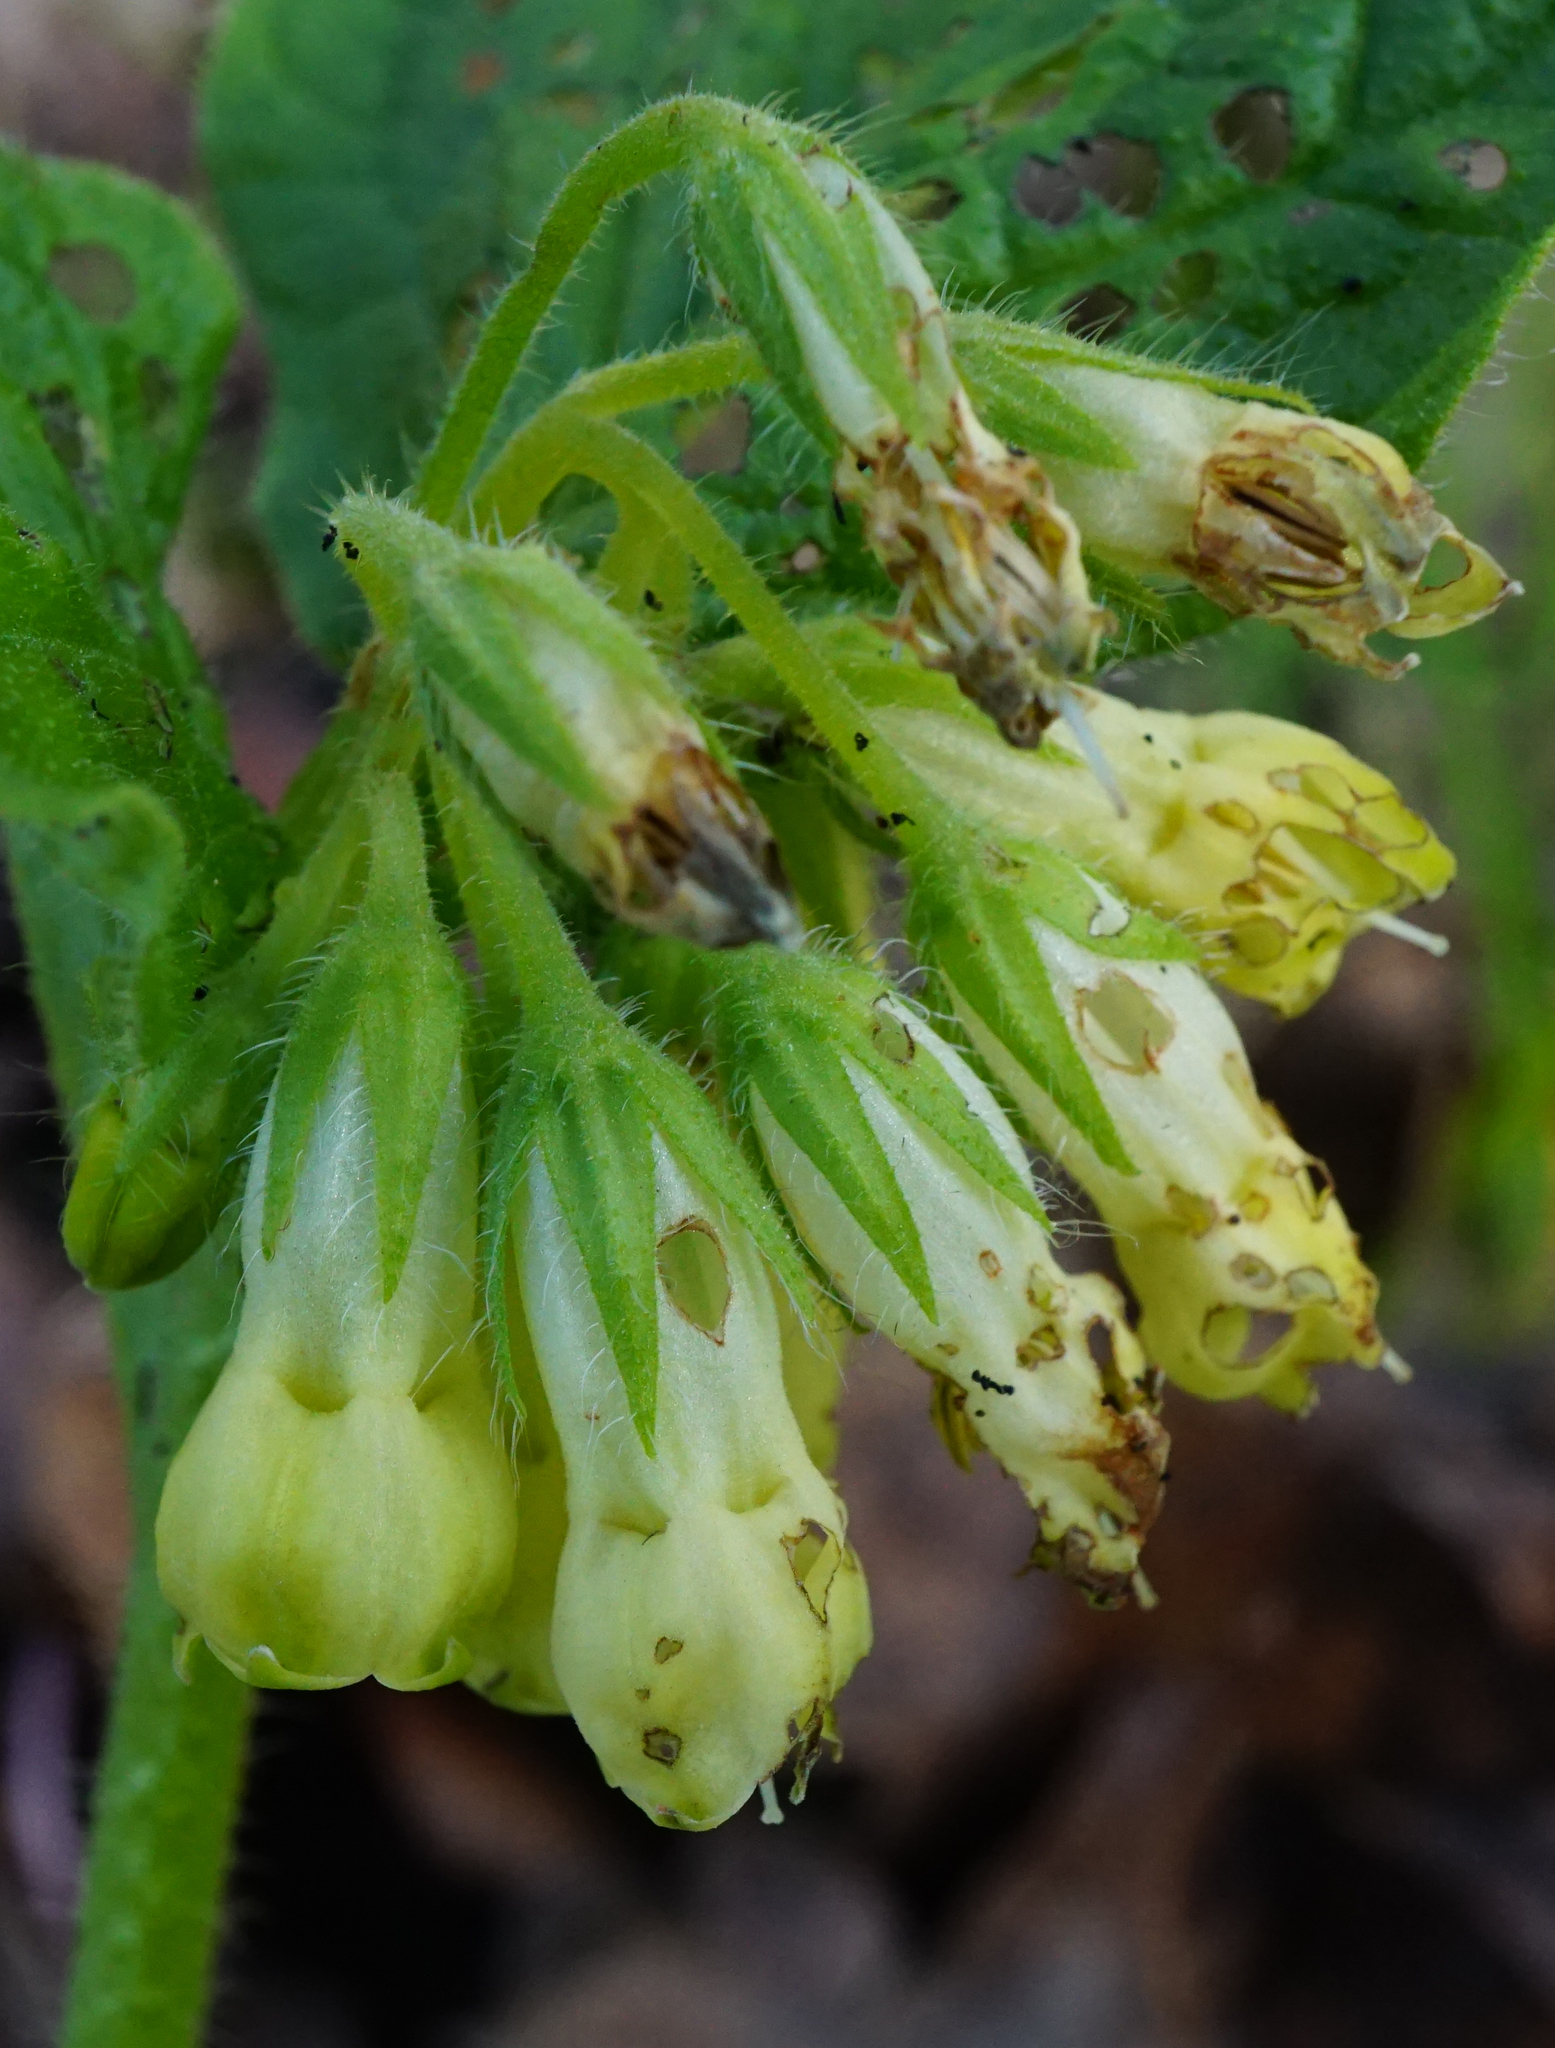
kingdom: Plantae
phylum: Tracheophyta
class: Magnoliopsida
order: Boraginales
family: Boraginaceae
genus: Symphytum
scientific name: Symphytum tuberosum
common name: Tuberous comfrey
